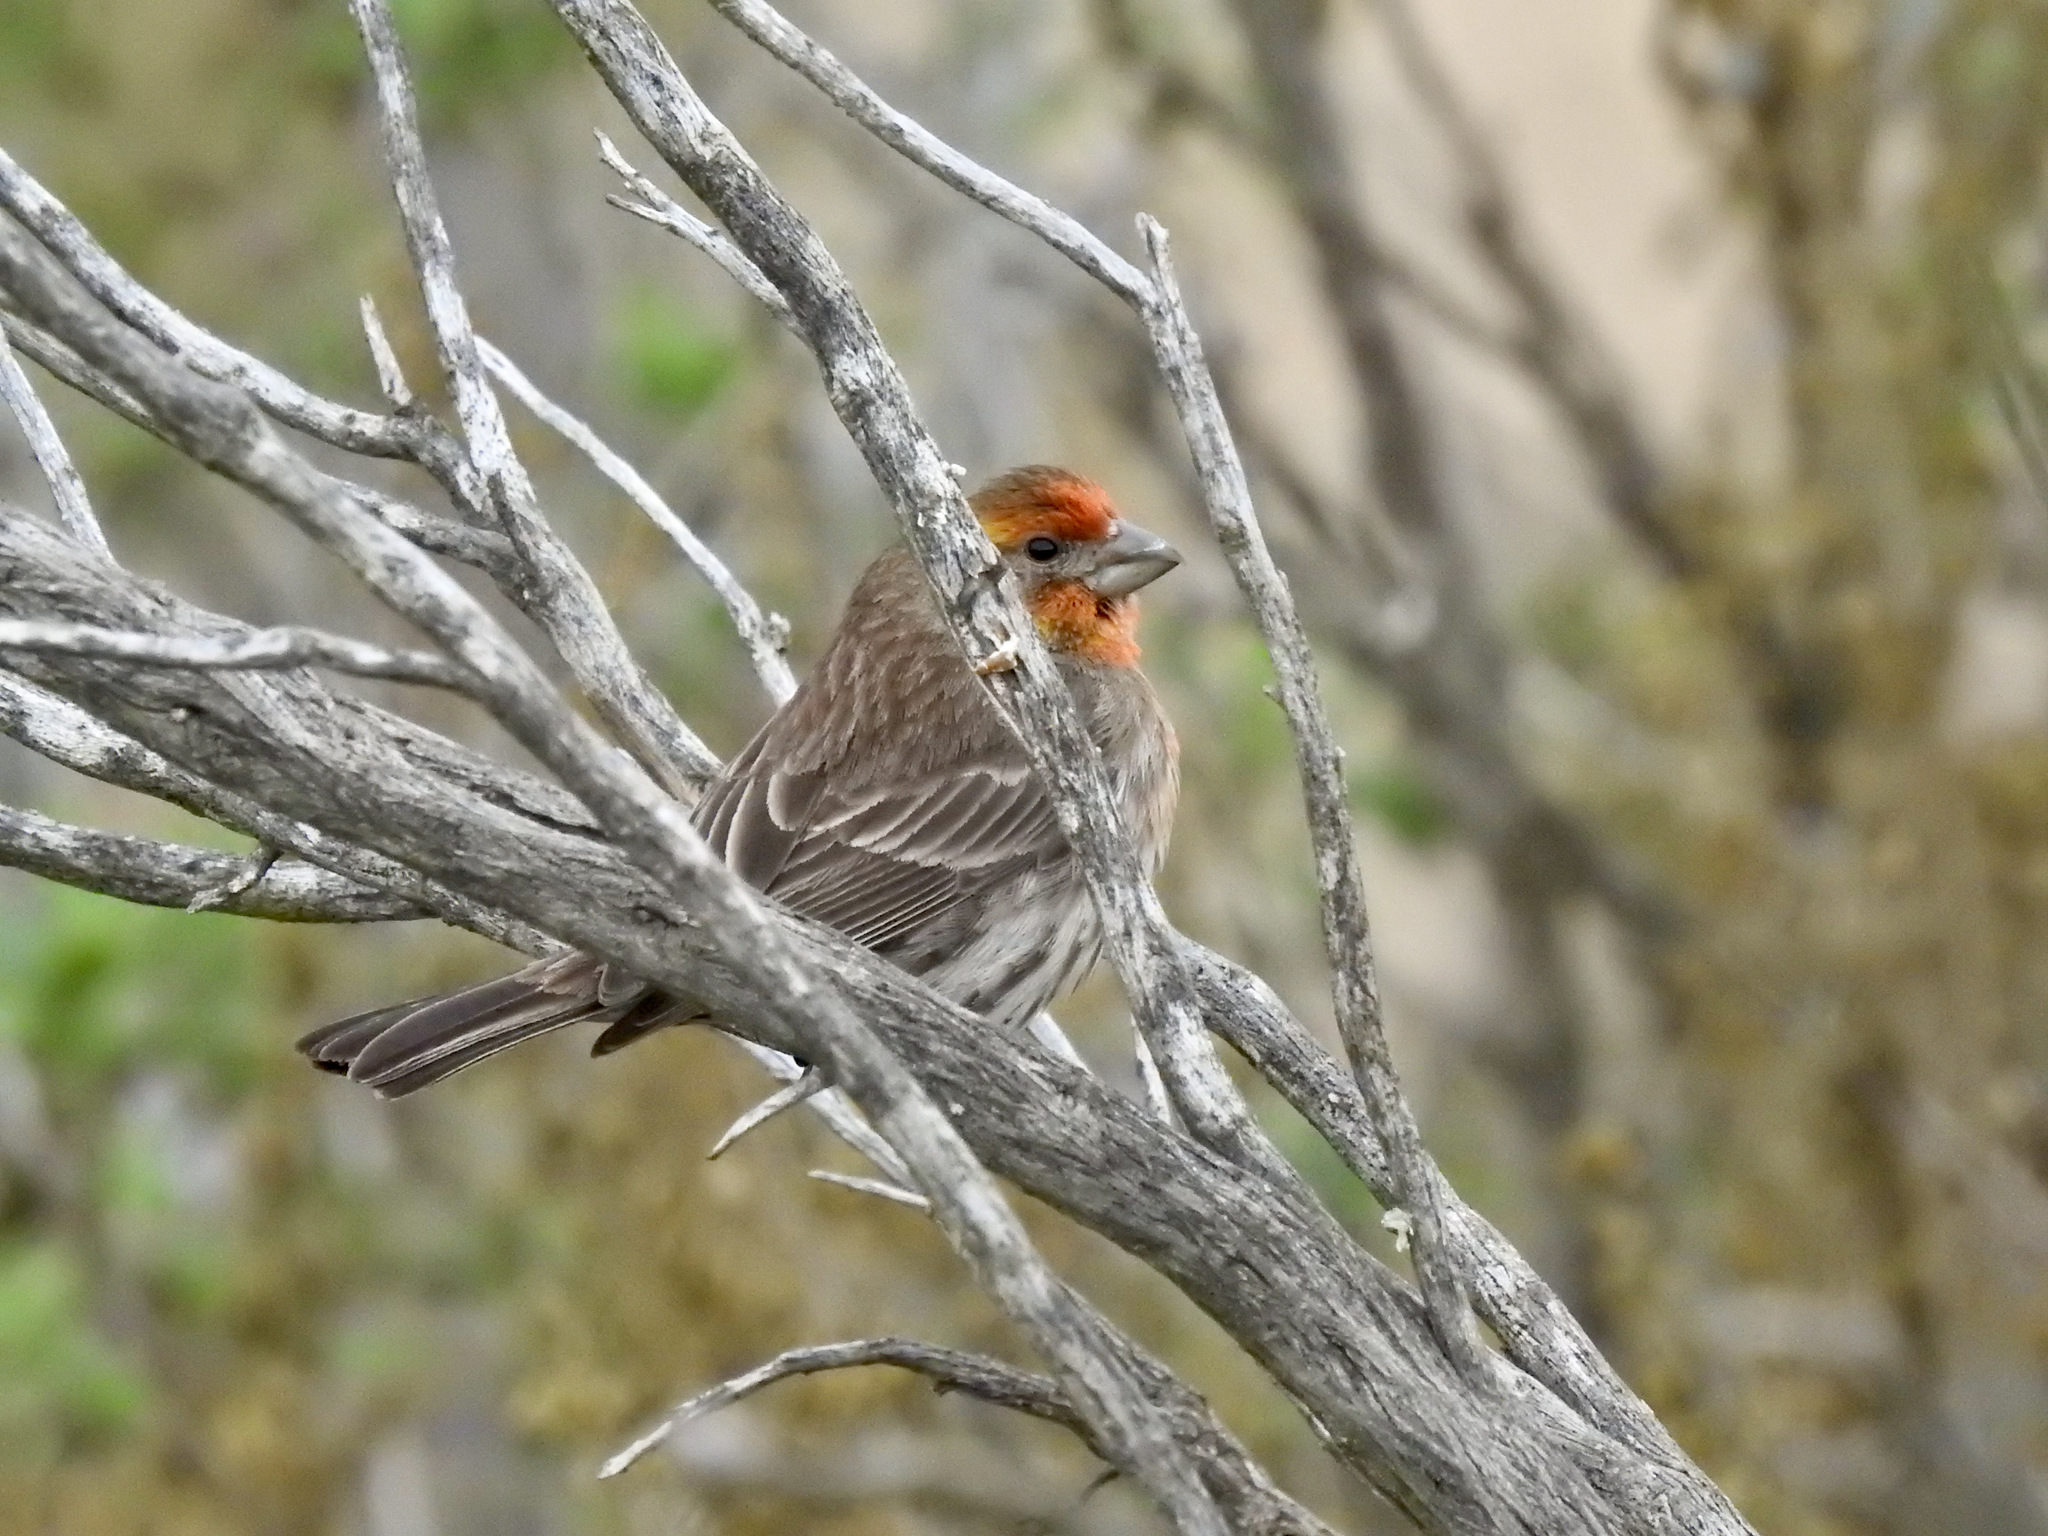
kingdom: Animalia
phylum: Chordata
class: Aves
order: Passeriformes
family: Fringillidae
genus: Haemorhous
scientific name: Haemorhous mexicanus
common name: House finch
